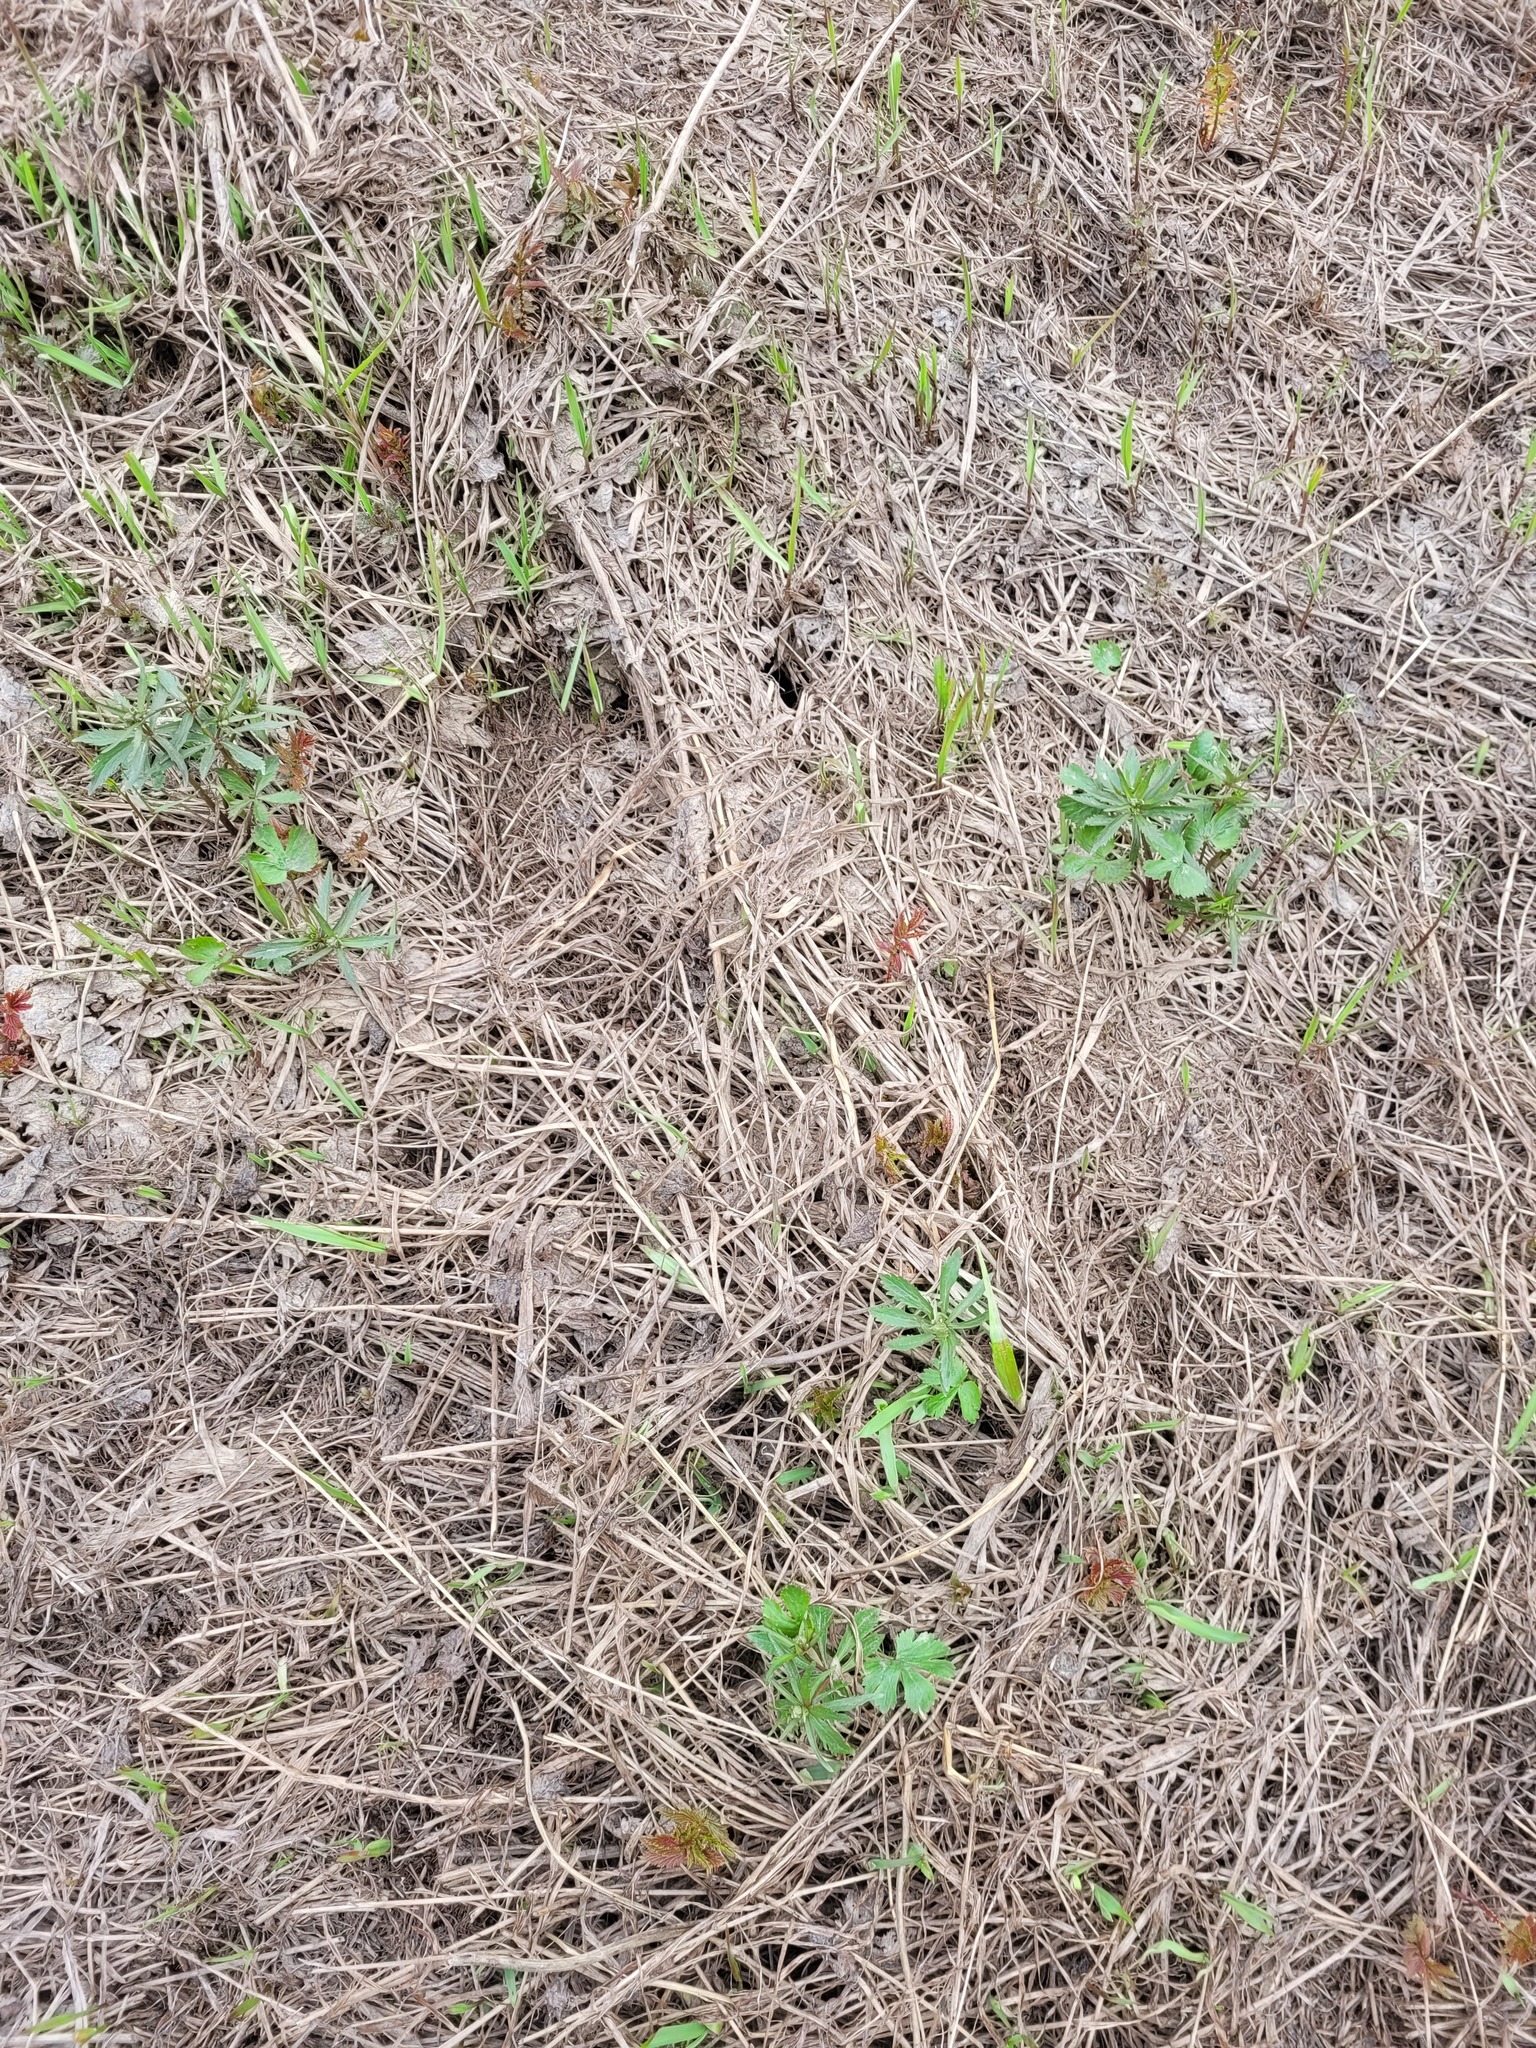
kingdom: Plantae
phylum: Tracheophyta
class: Magnoliopsida
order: Ranunculales
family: Ranunculaceae
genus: Ranunculus
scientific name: Ranunculus fallax
